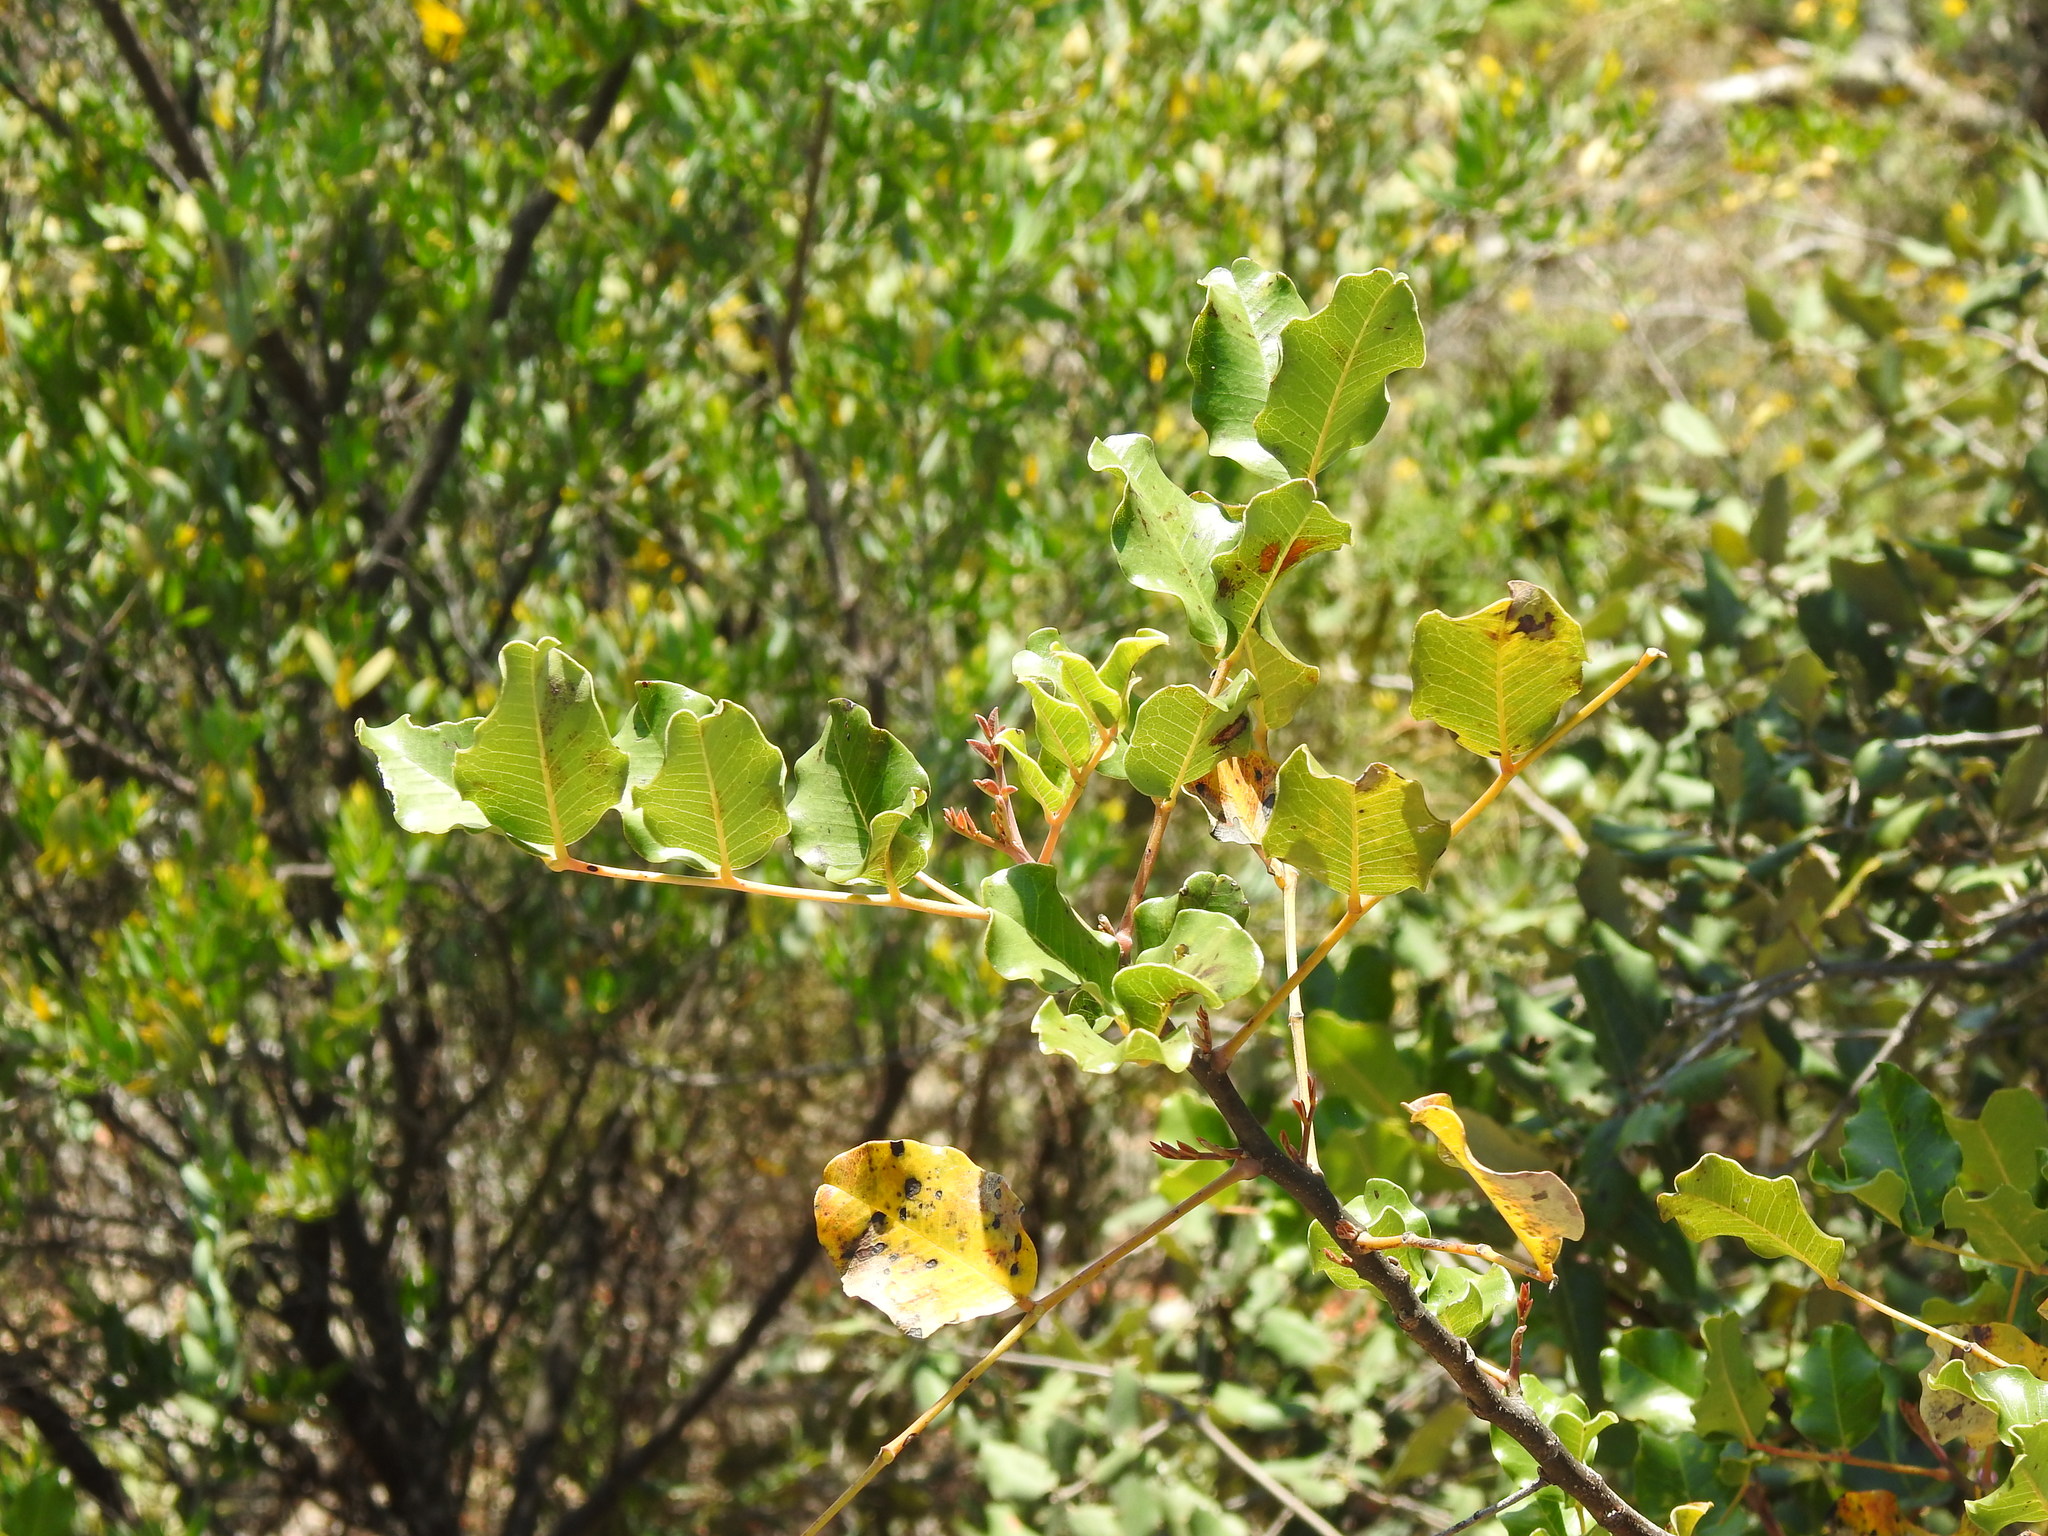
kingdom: Plantae
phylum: Tracheophyta
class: Magnoliopsida
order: Fabales
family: Fabaceae
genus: Ceratonia
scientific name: Ceratonia siliqua
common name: Carob
